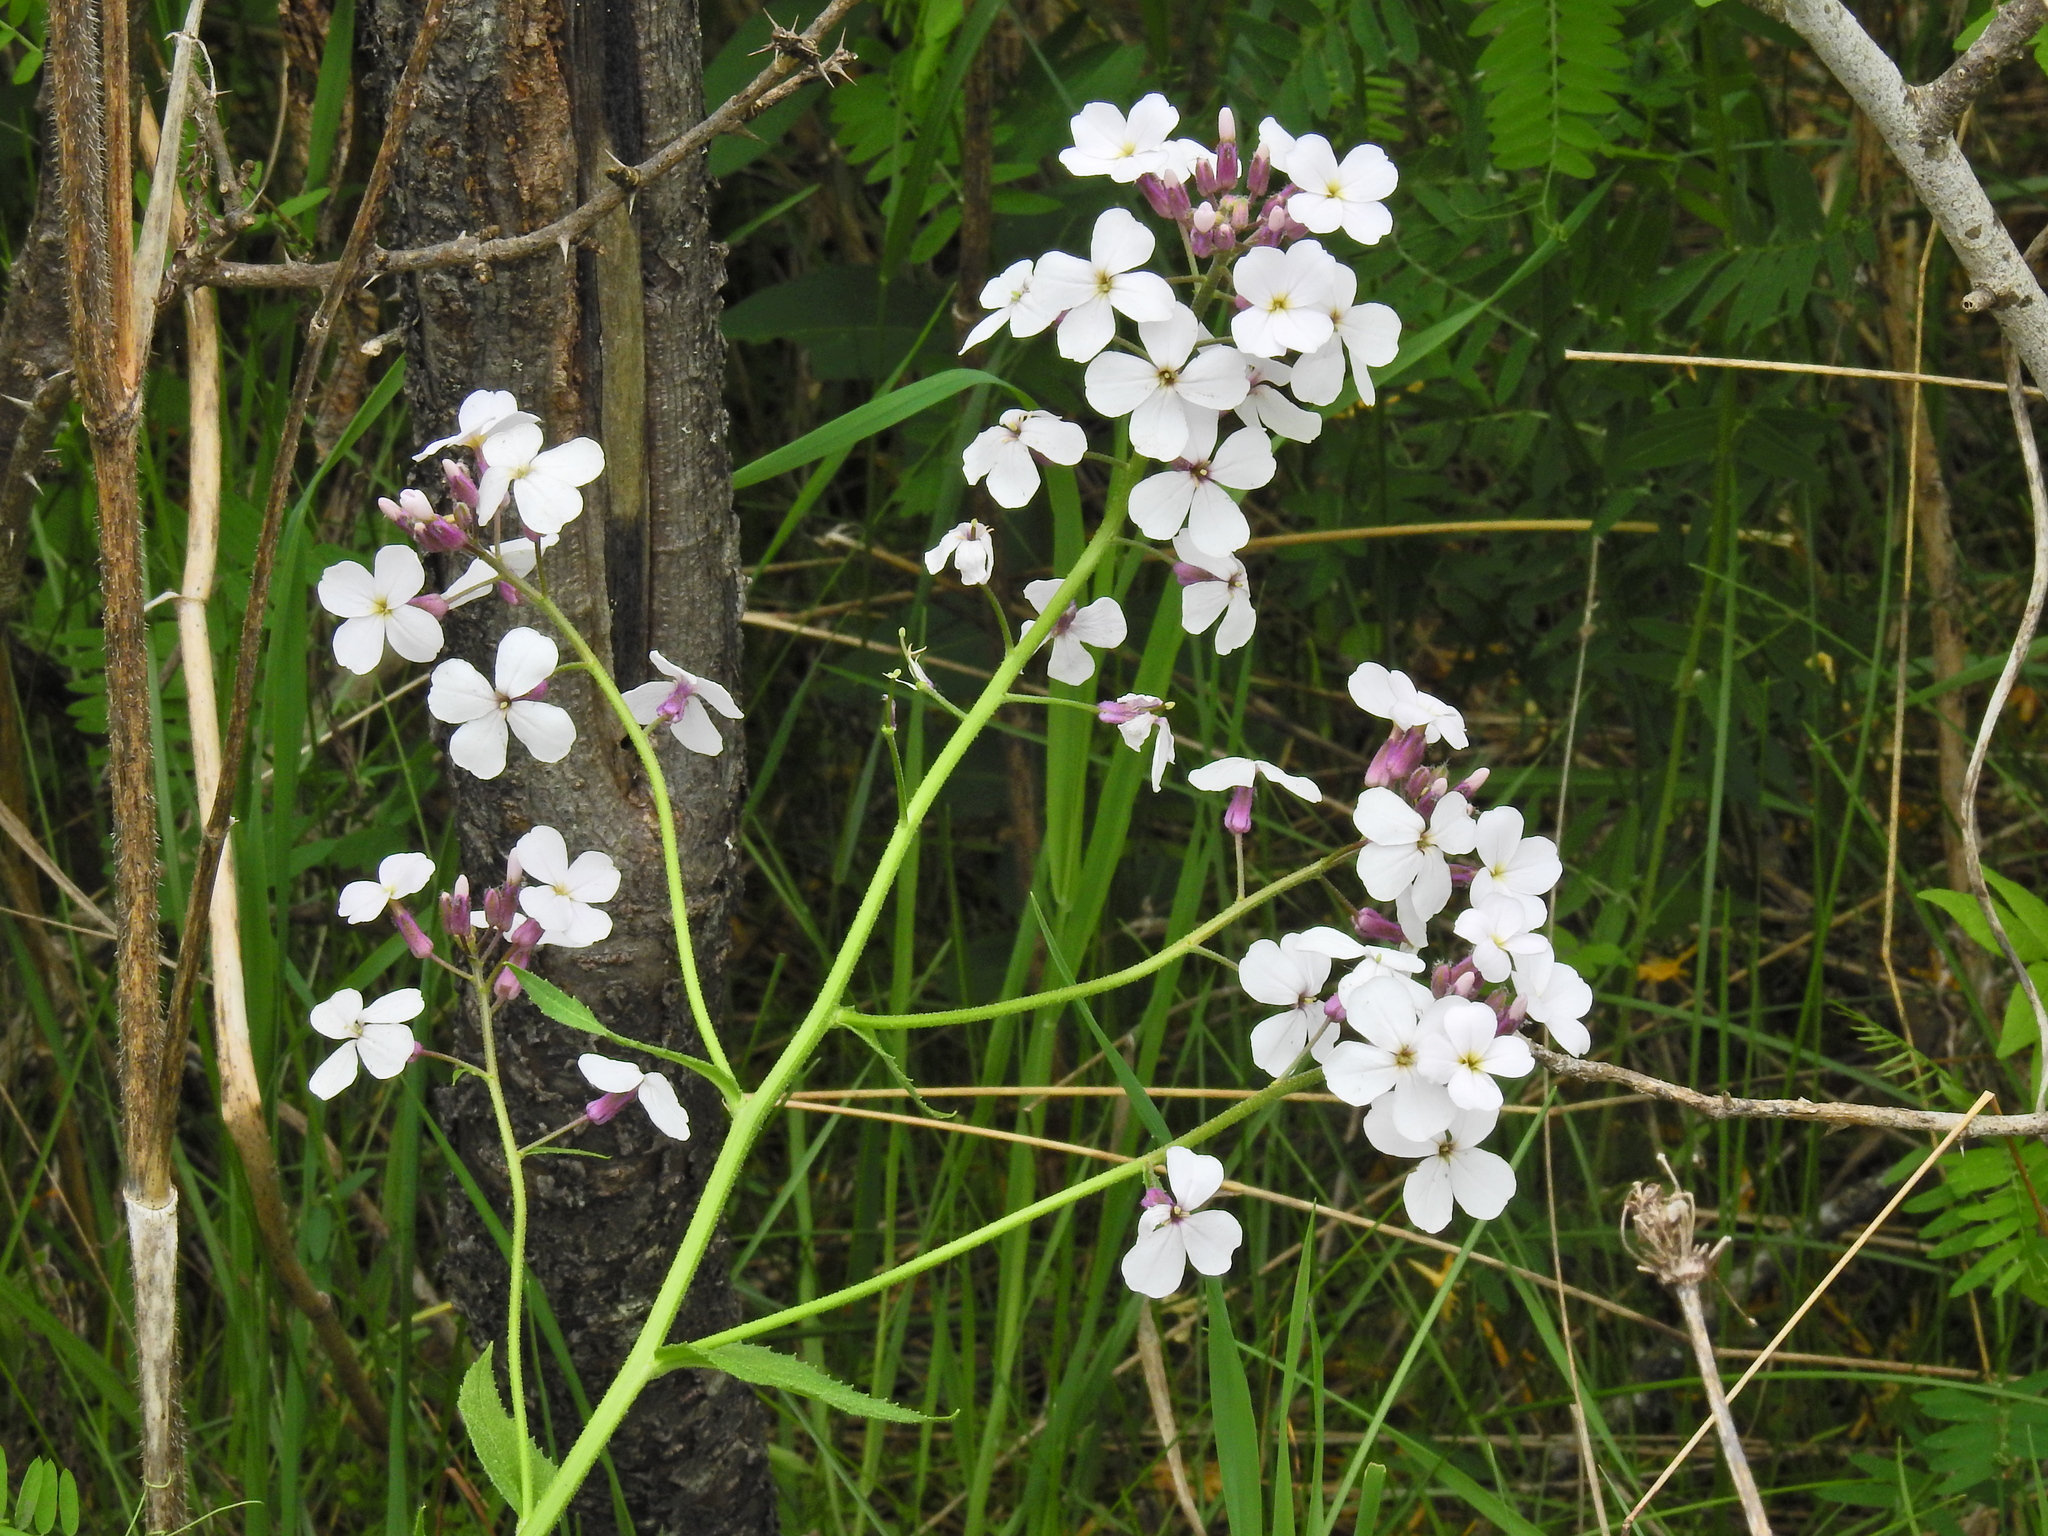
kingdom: Plantae
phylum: Tracheophyta
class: Magnoliopsida
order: Brassicales
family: Brassicaceae
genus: Hesperis
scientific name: Hesperis matronalis
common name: Dame's-violet
